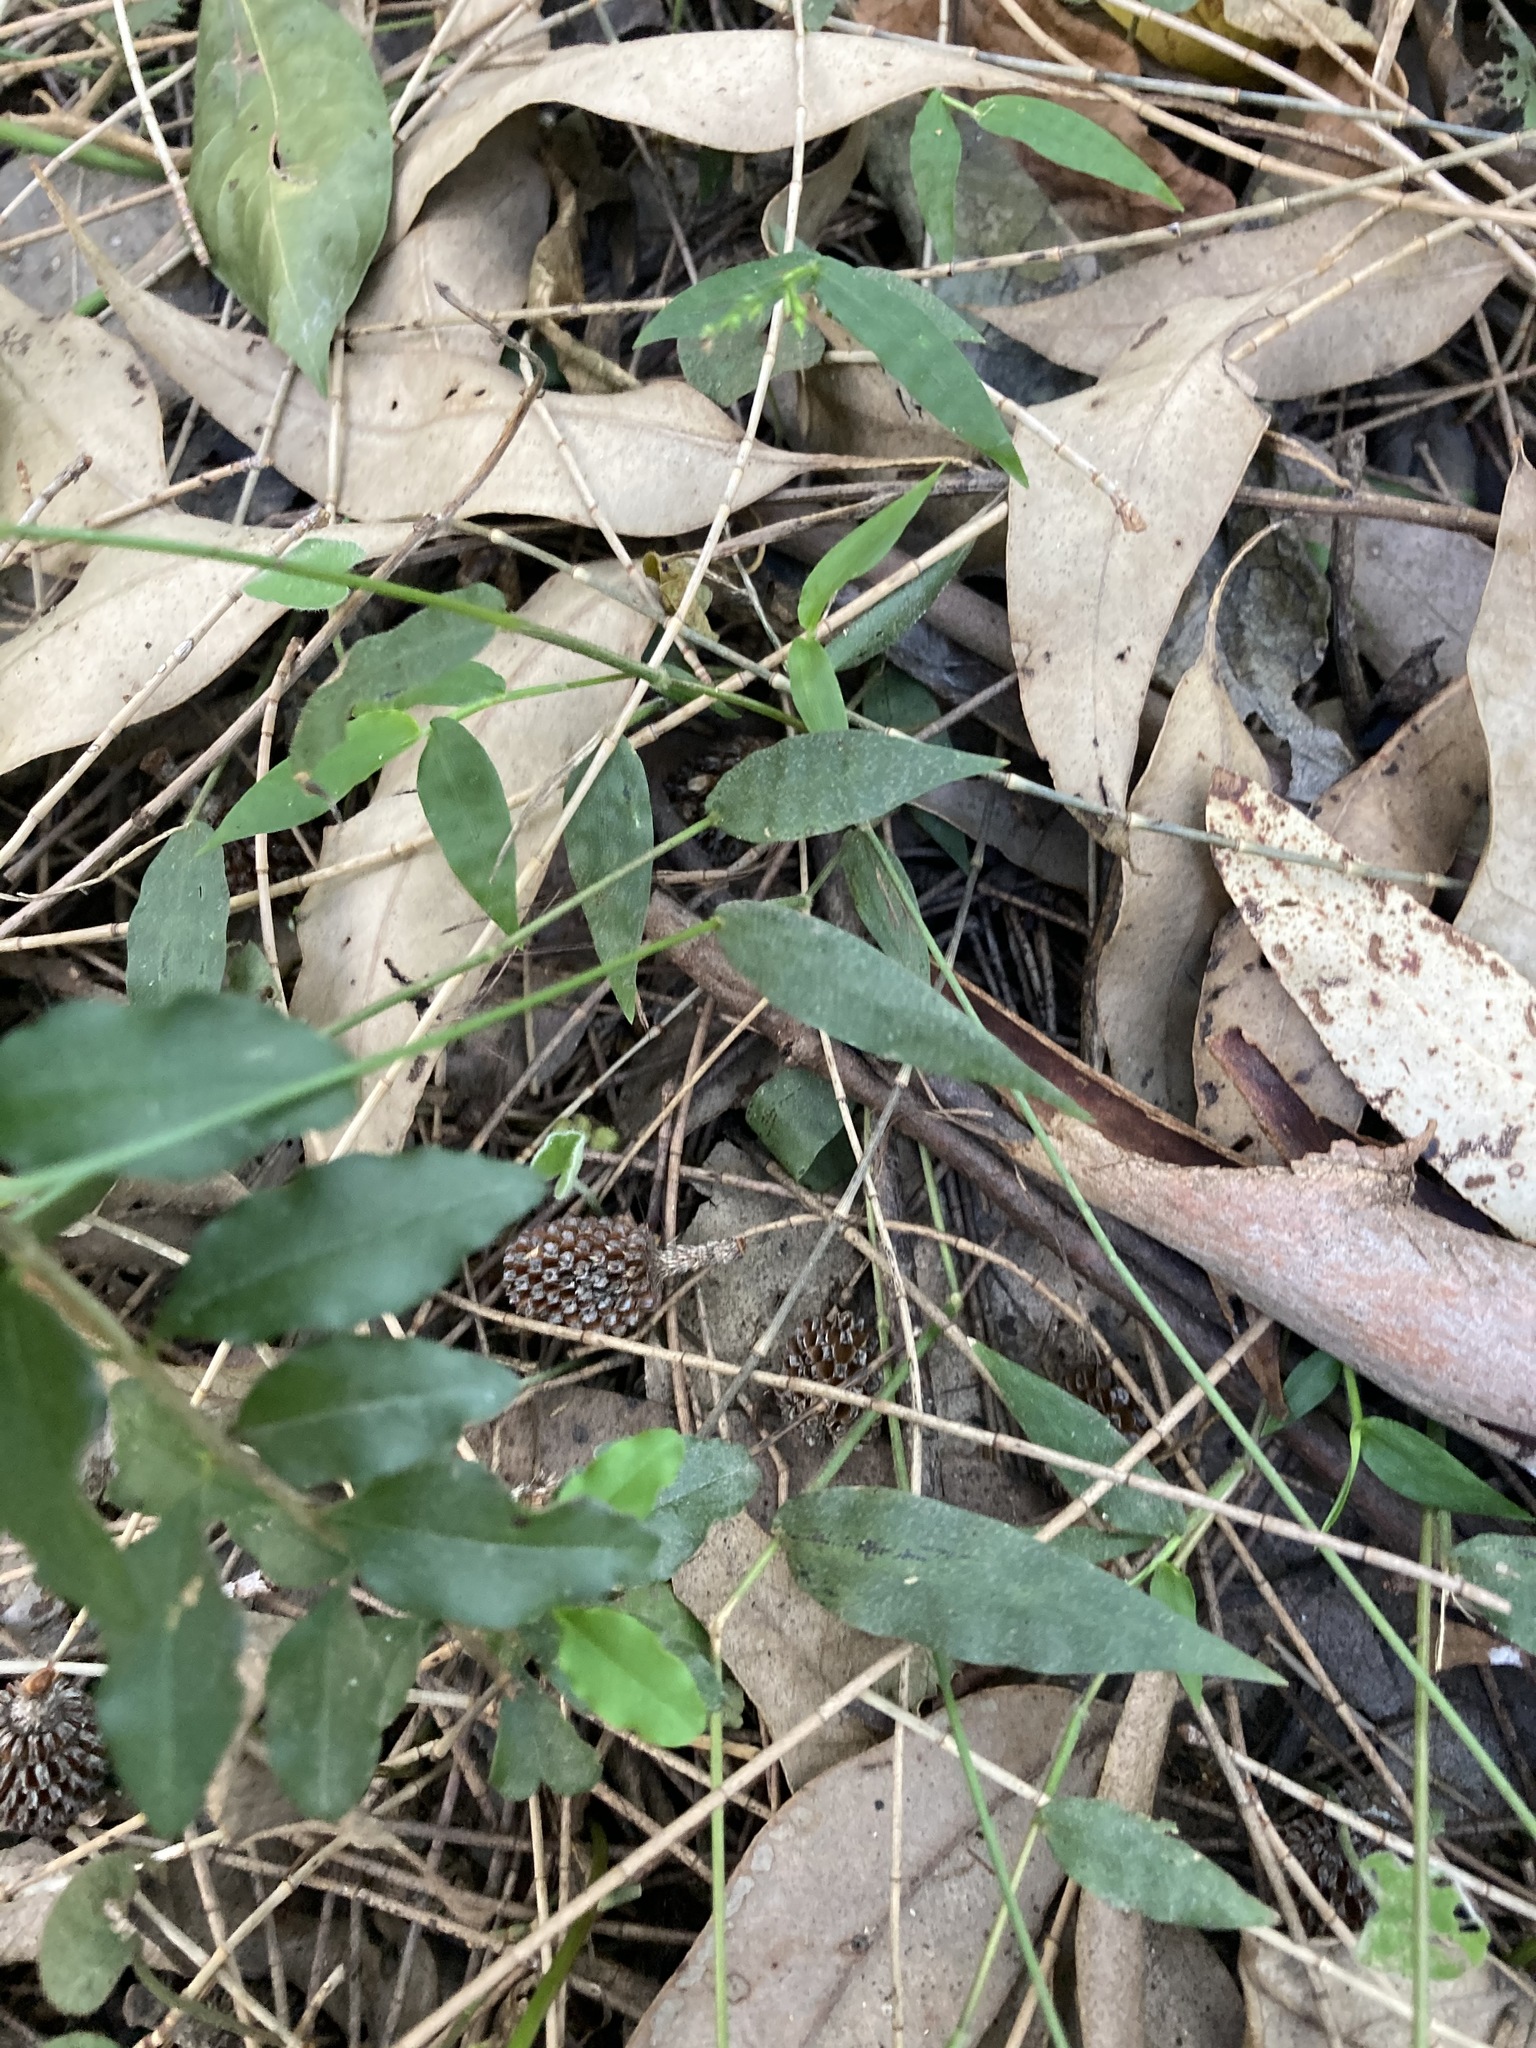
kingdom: Plantae
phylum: Tracheophyta
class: Liliopsida
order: Poales
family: Poaceae
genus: Oplismenus
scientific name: Oplismenus hirtellus
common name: Basketgrass
